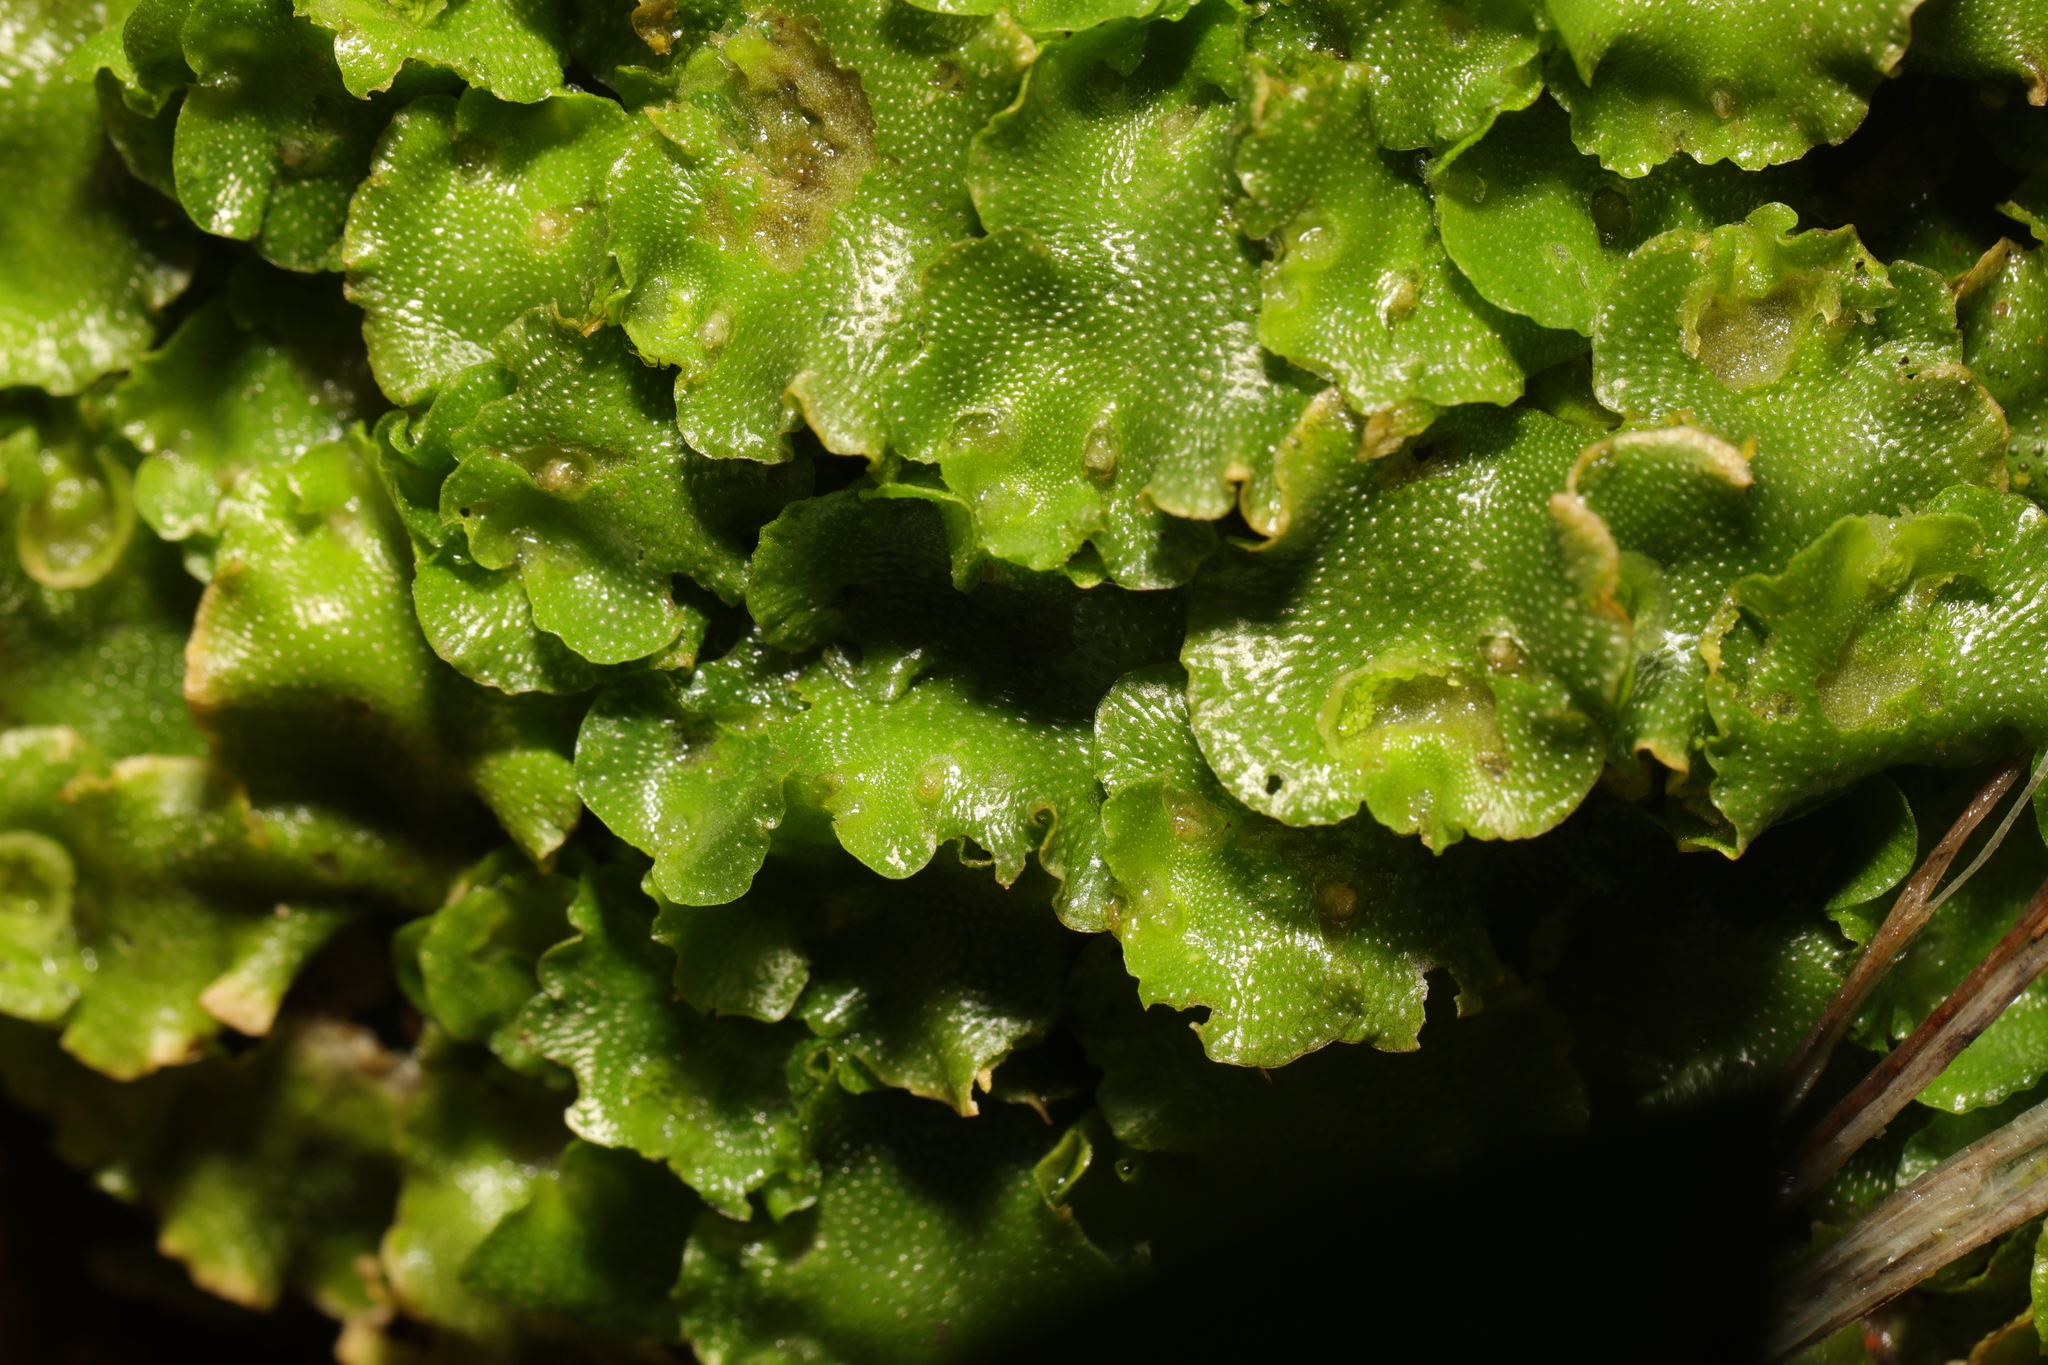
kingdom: Plantae
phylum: Marchantiophyta
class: Marchantiopsida
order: Lunulariales
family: Lunulariaceae
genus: Lunularia
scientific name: Lunularia cruciata
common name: Crescent-cup liverwort
